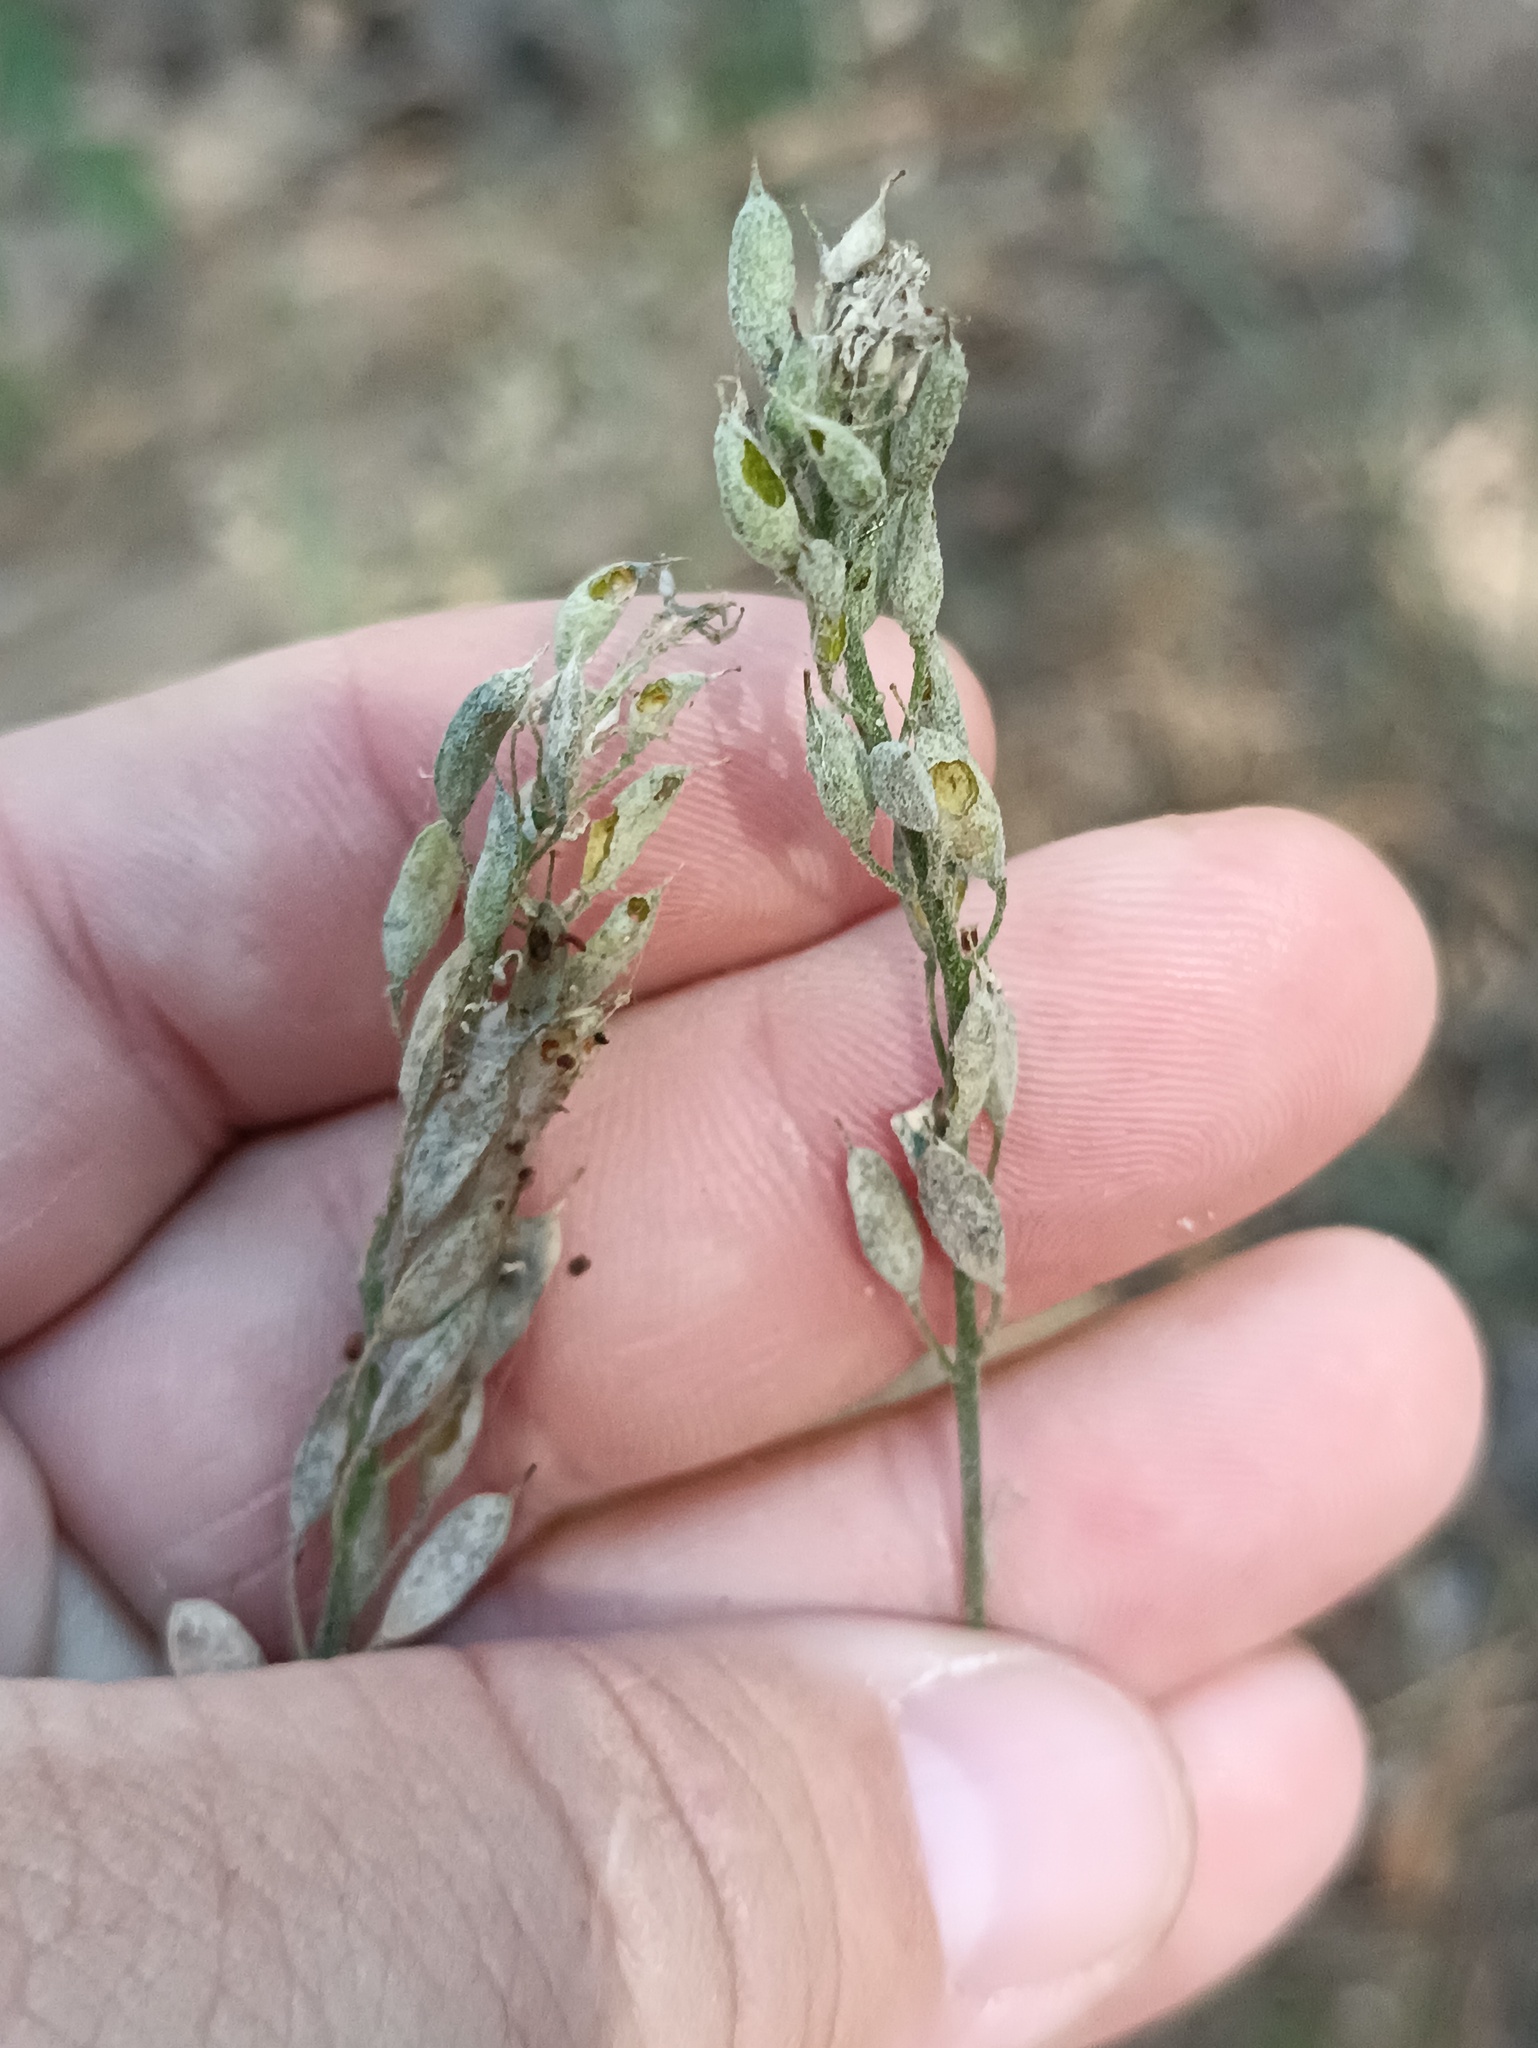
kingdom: Plantae
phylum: Tracheophyta
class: Magnoliopsida
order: Brassicales
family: Brassicaceae
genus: Berteroa
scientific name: Berteroa incana
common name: Hoary alison
